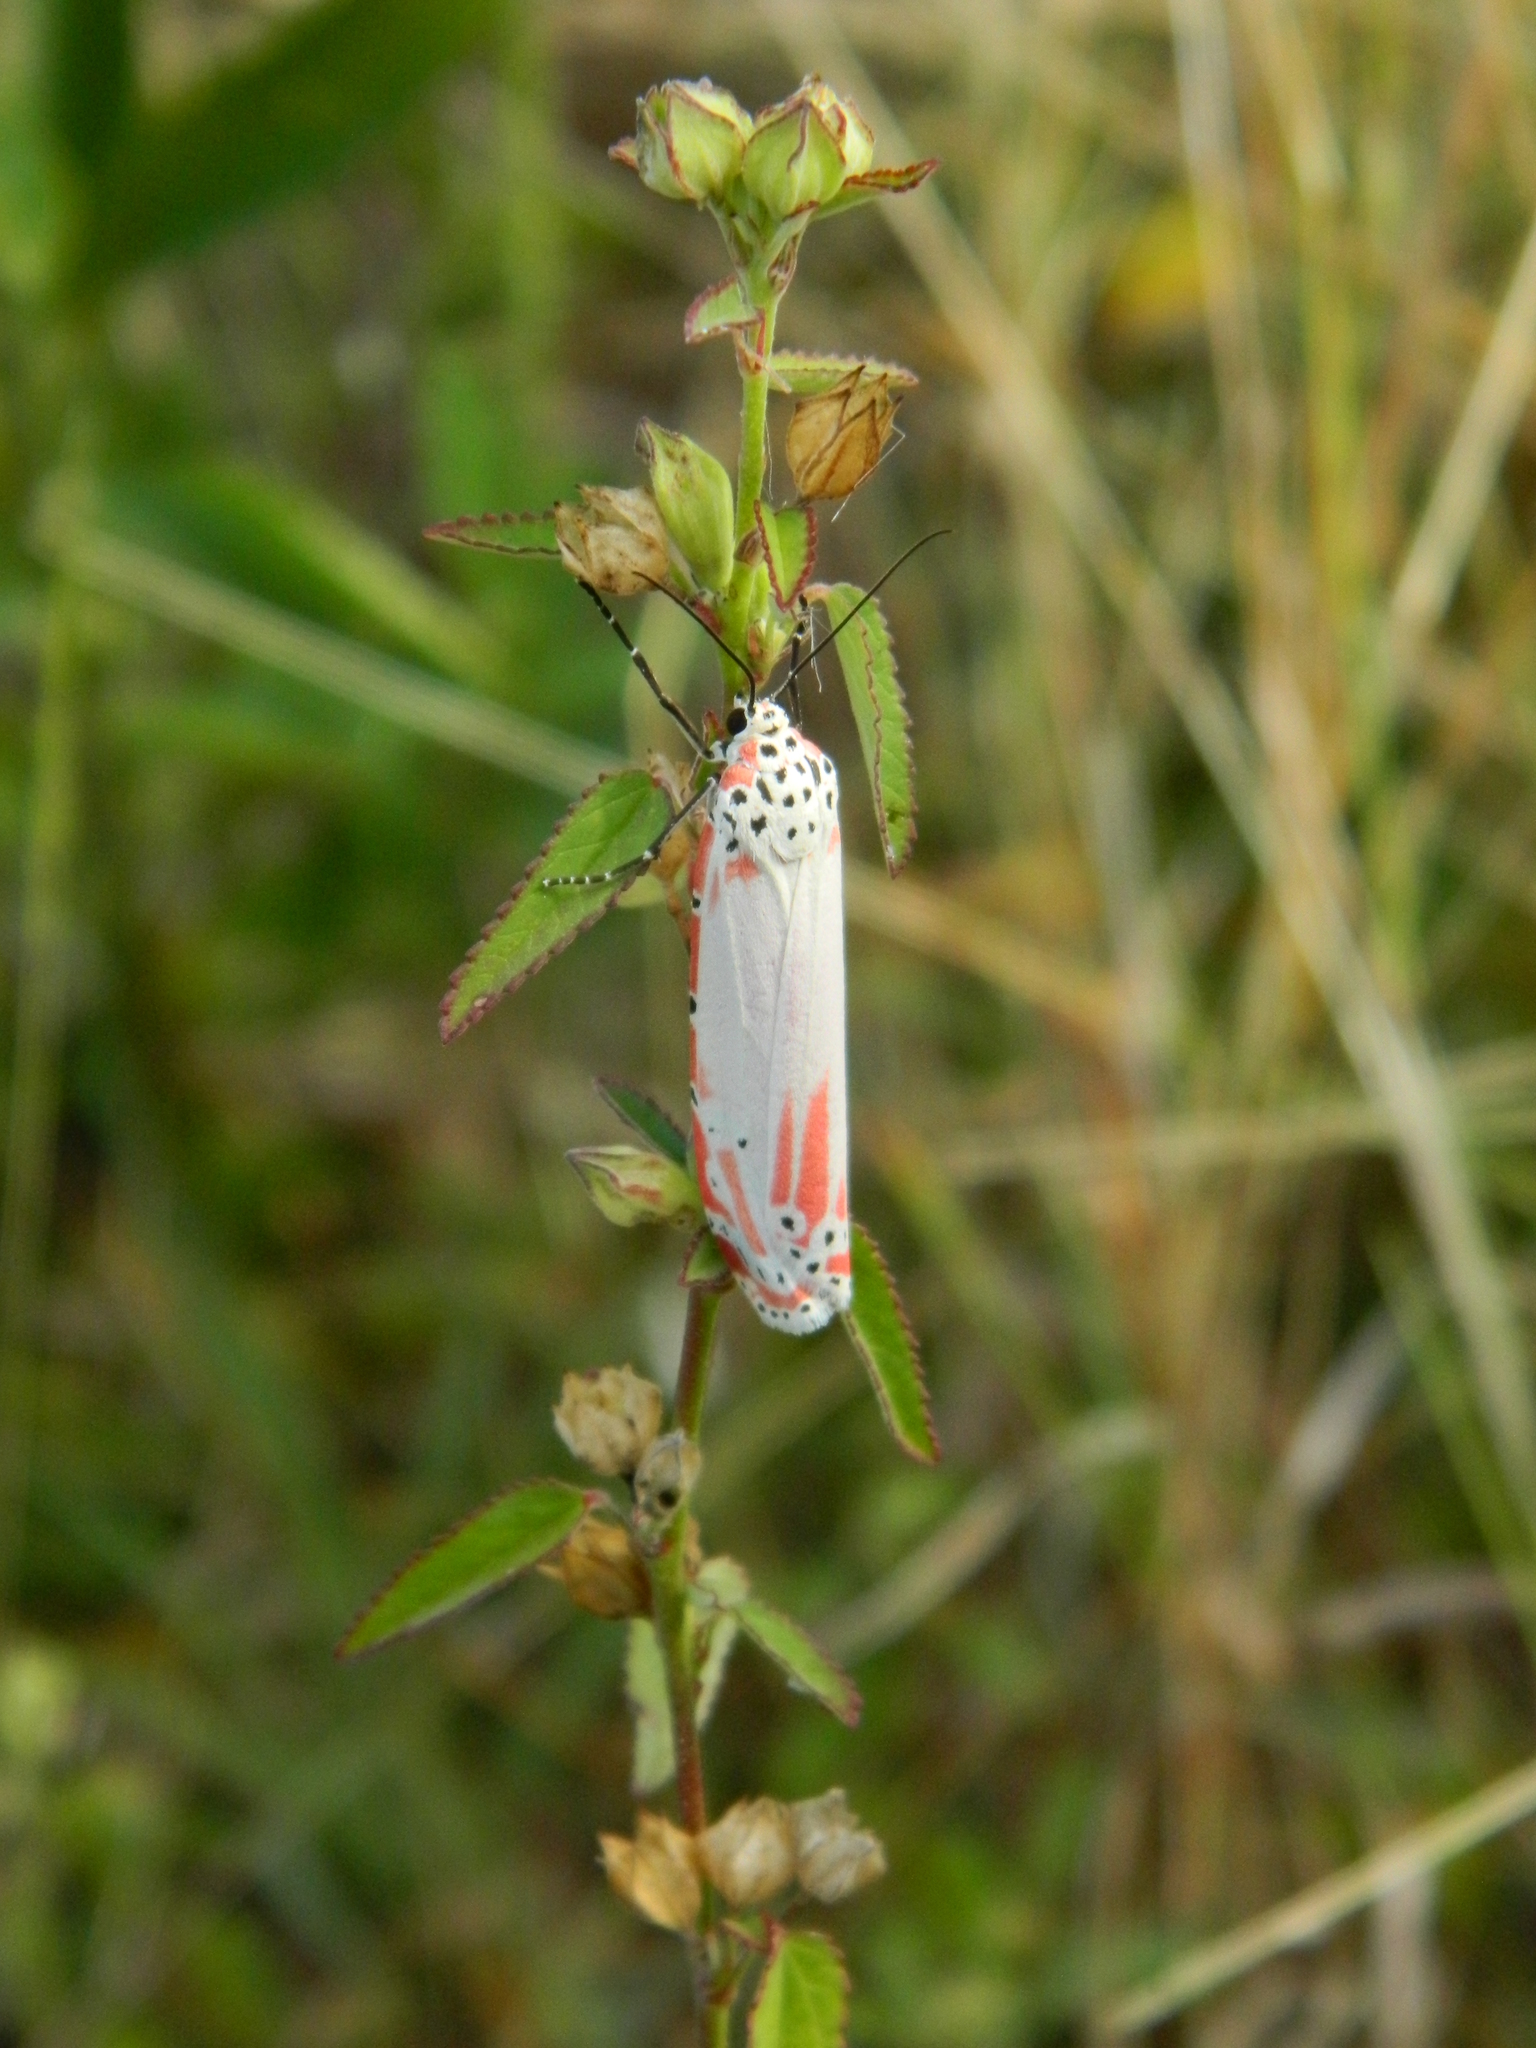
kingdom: Animalia
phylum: Arthropoda
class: Insecta
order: Lepidoptera
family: Erebidae
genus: Utetheisa
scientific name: Utetheisa ornatrix
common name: Beautiful utetheisa
